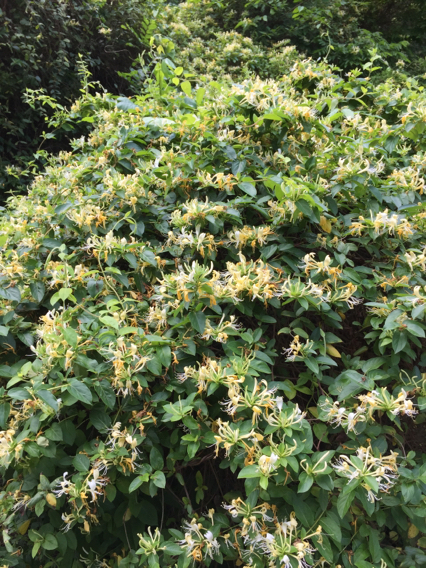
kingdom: Plantae
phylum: Tracheophyta
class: Magnoliopsida
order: Dipsacales
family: Caprifoliaceae
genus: Lonicera
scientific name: Lonicera japonica
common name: Japanese honeysuckle
